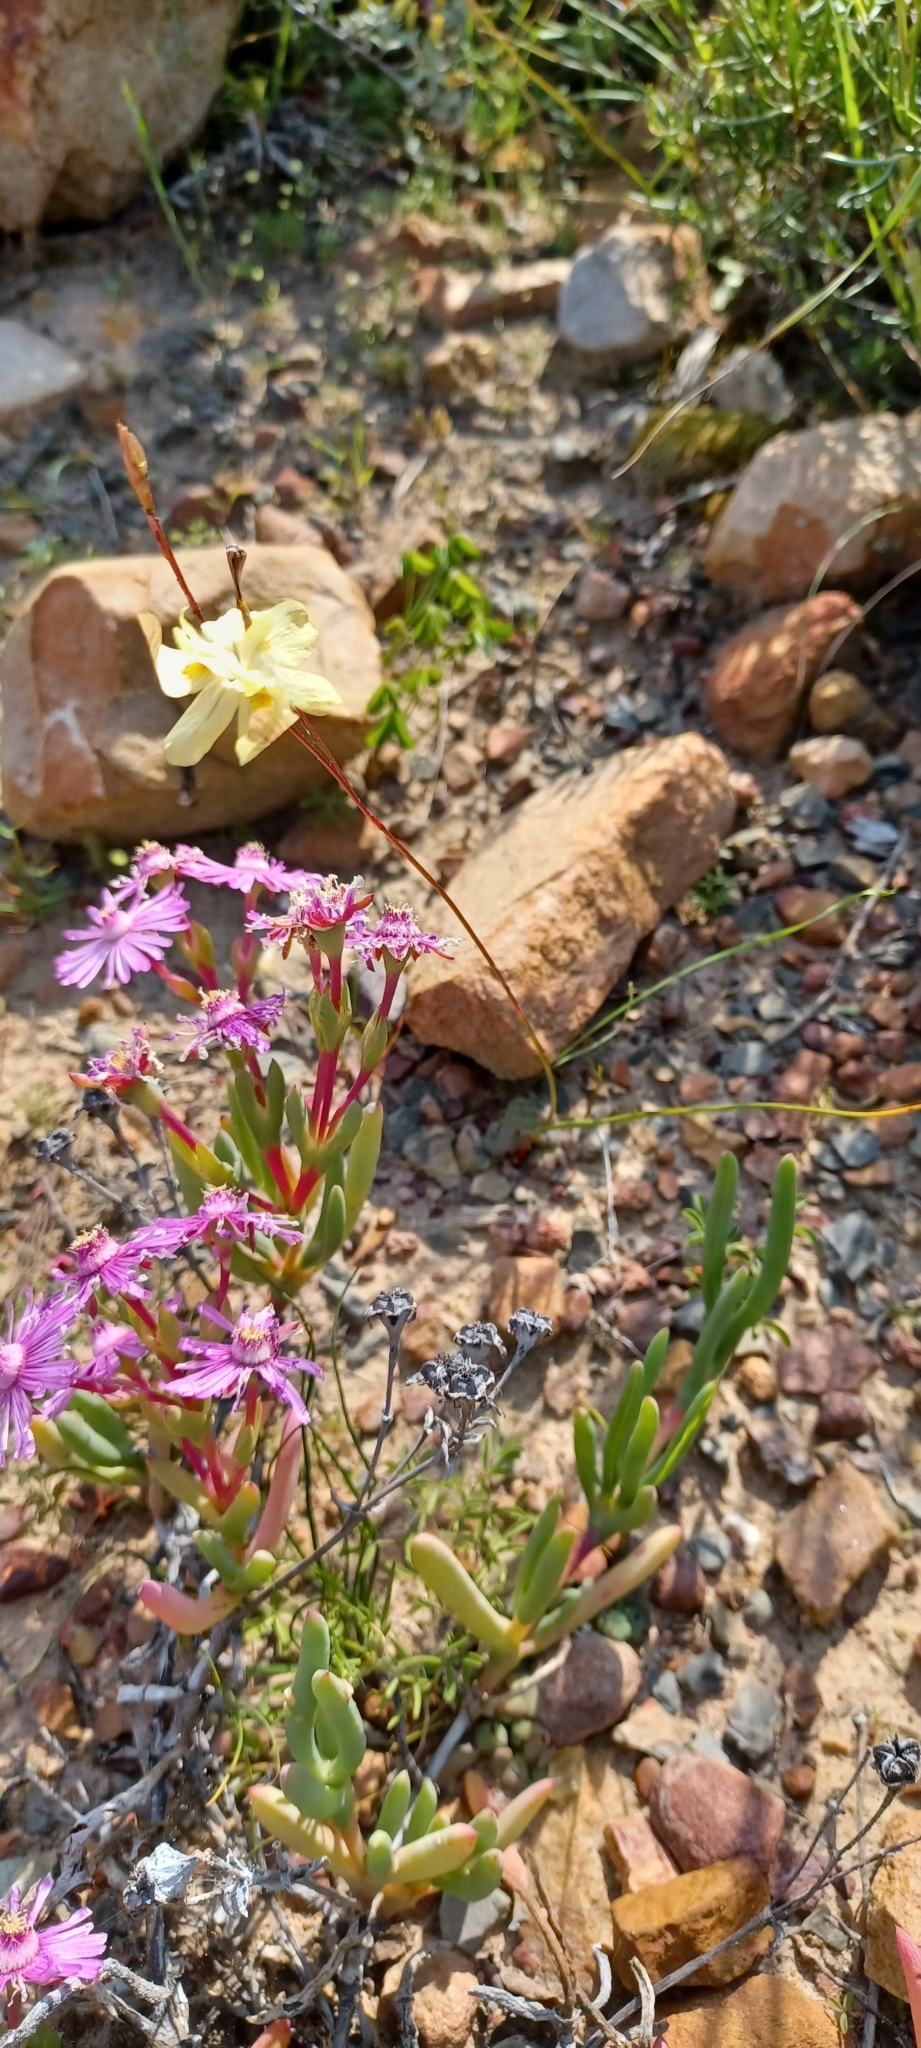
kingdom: Plantae
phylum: Tracheophyta
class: Liliopsida
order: Asparagales
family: Iridaceae
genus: Moraea
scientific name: Moraea gawleri
